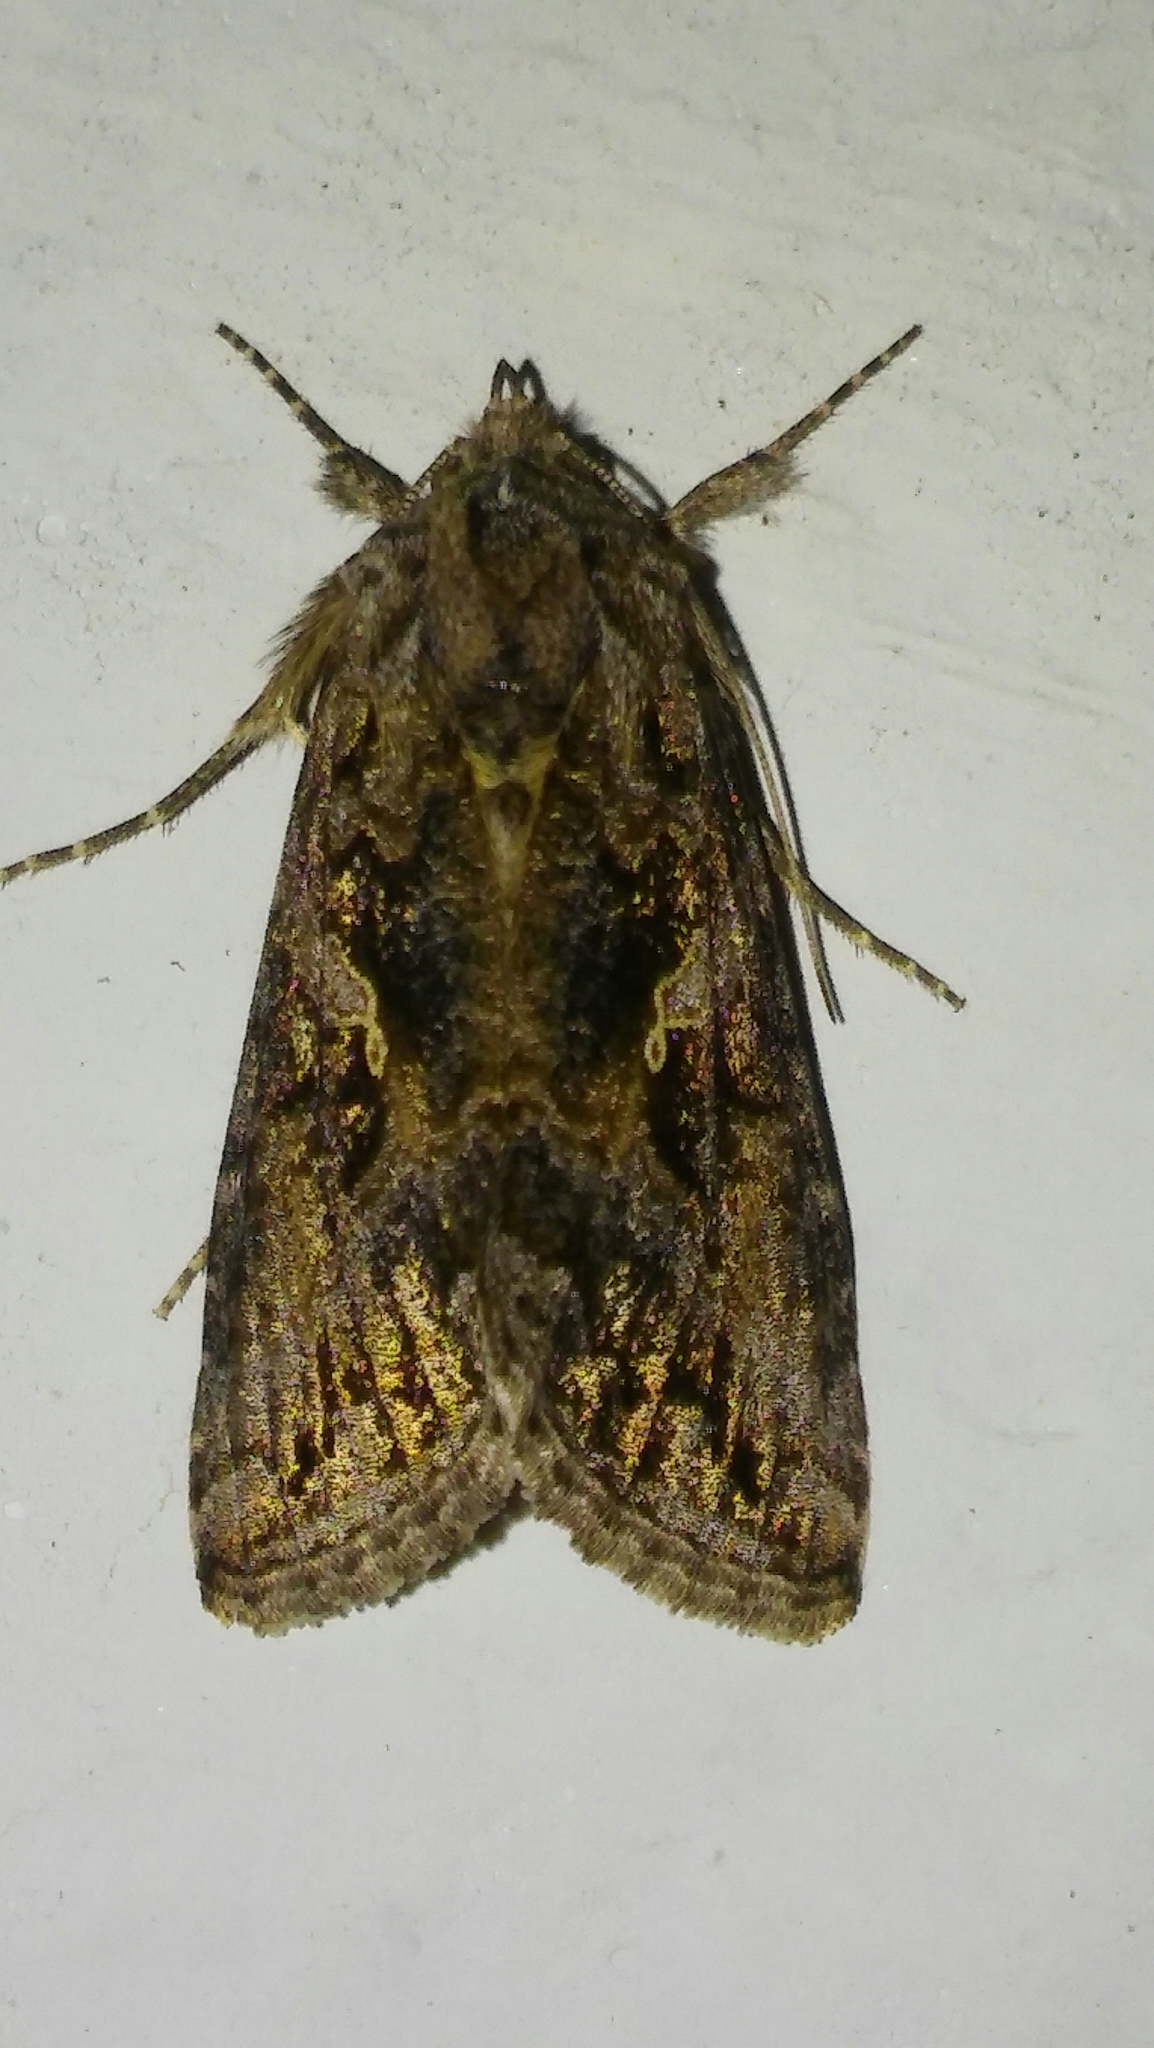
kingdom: Animalia
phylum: Arthropoda
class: Insecta
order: Lepidoptera
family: Noctuidae
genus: Rachiplusia
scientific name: Rachiplusia nu
